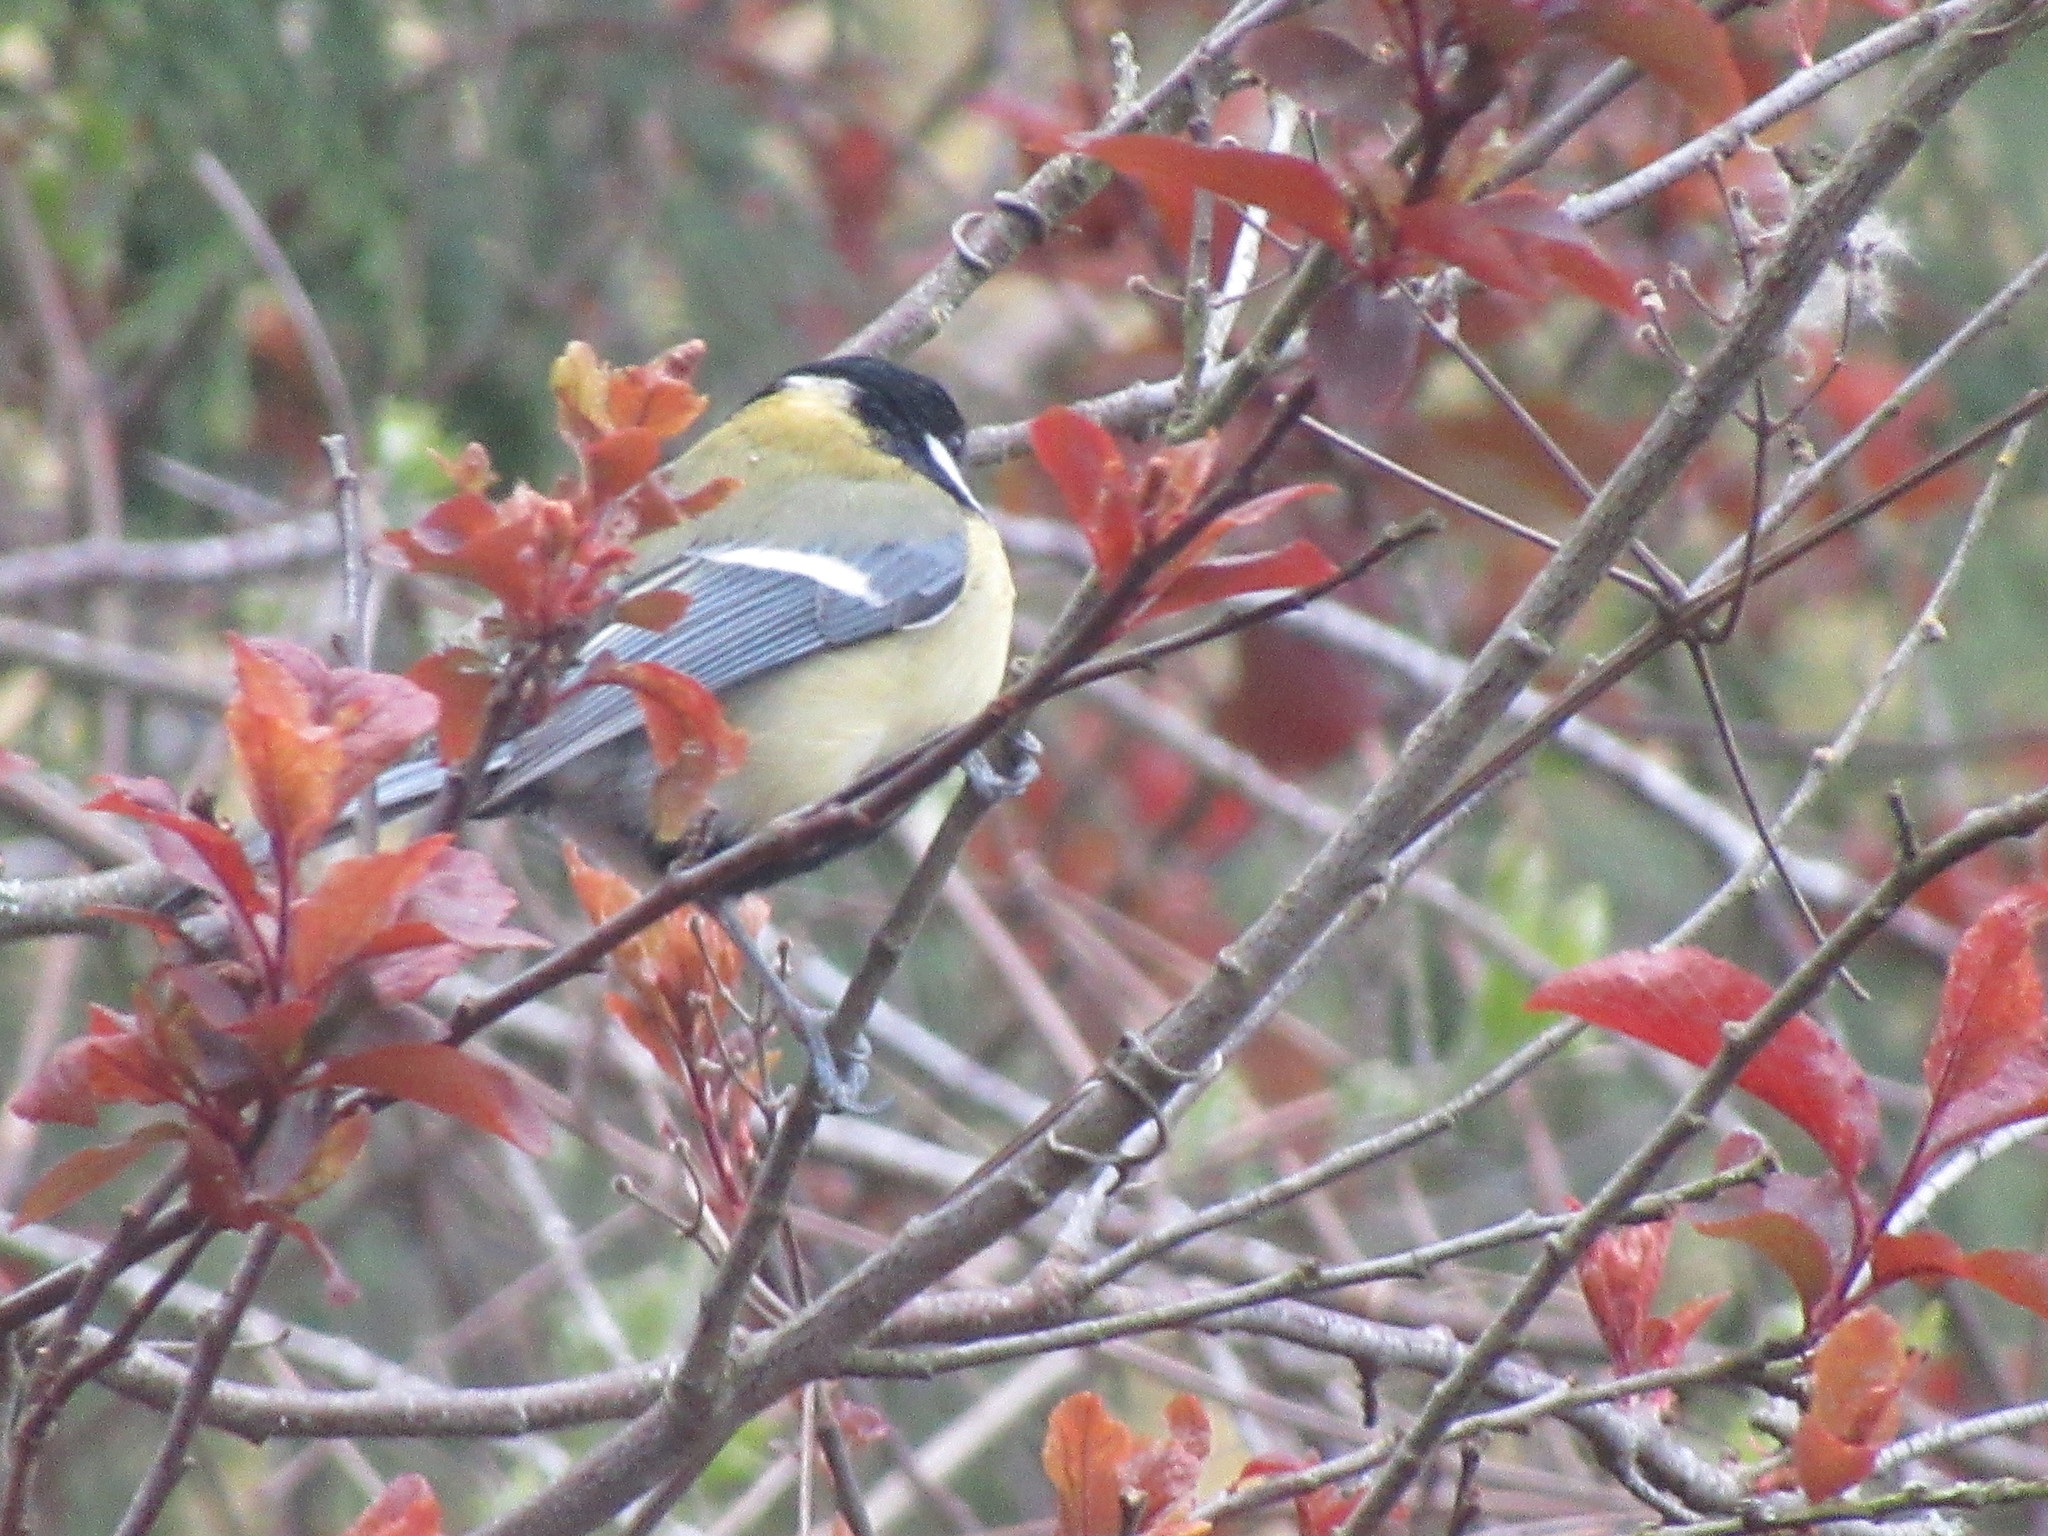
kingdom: Animalia
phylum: Chordata
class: Aves
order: Passeriformes
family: Paridae
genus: Parus
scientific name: Parus major
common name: Great tit
